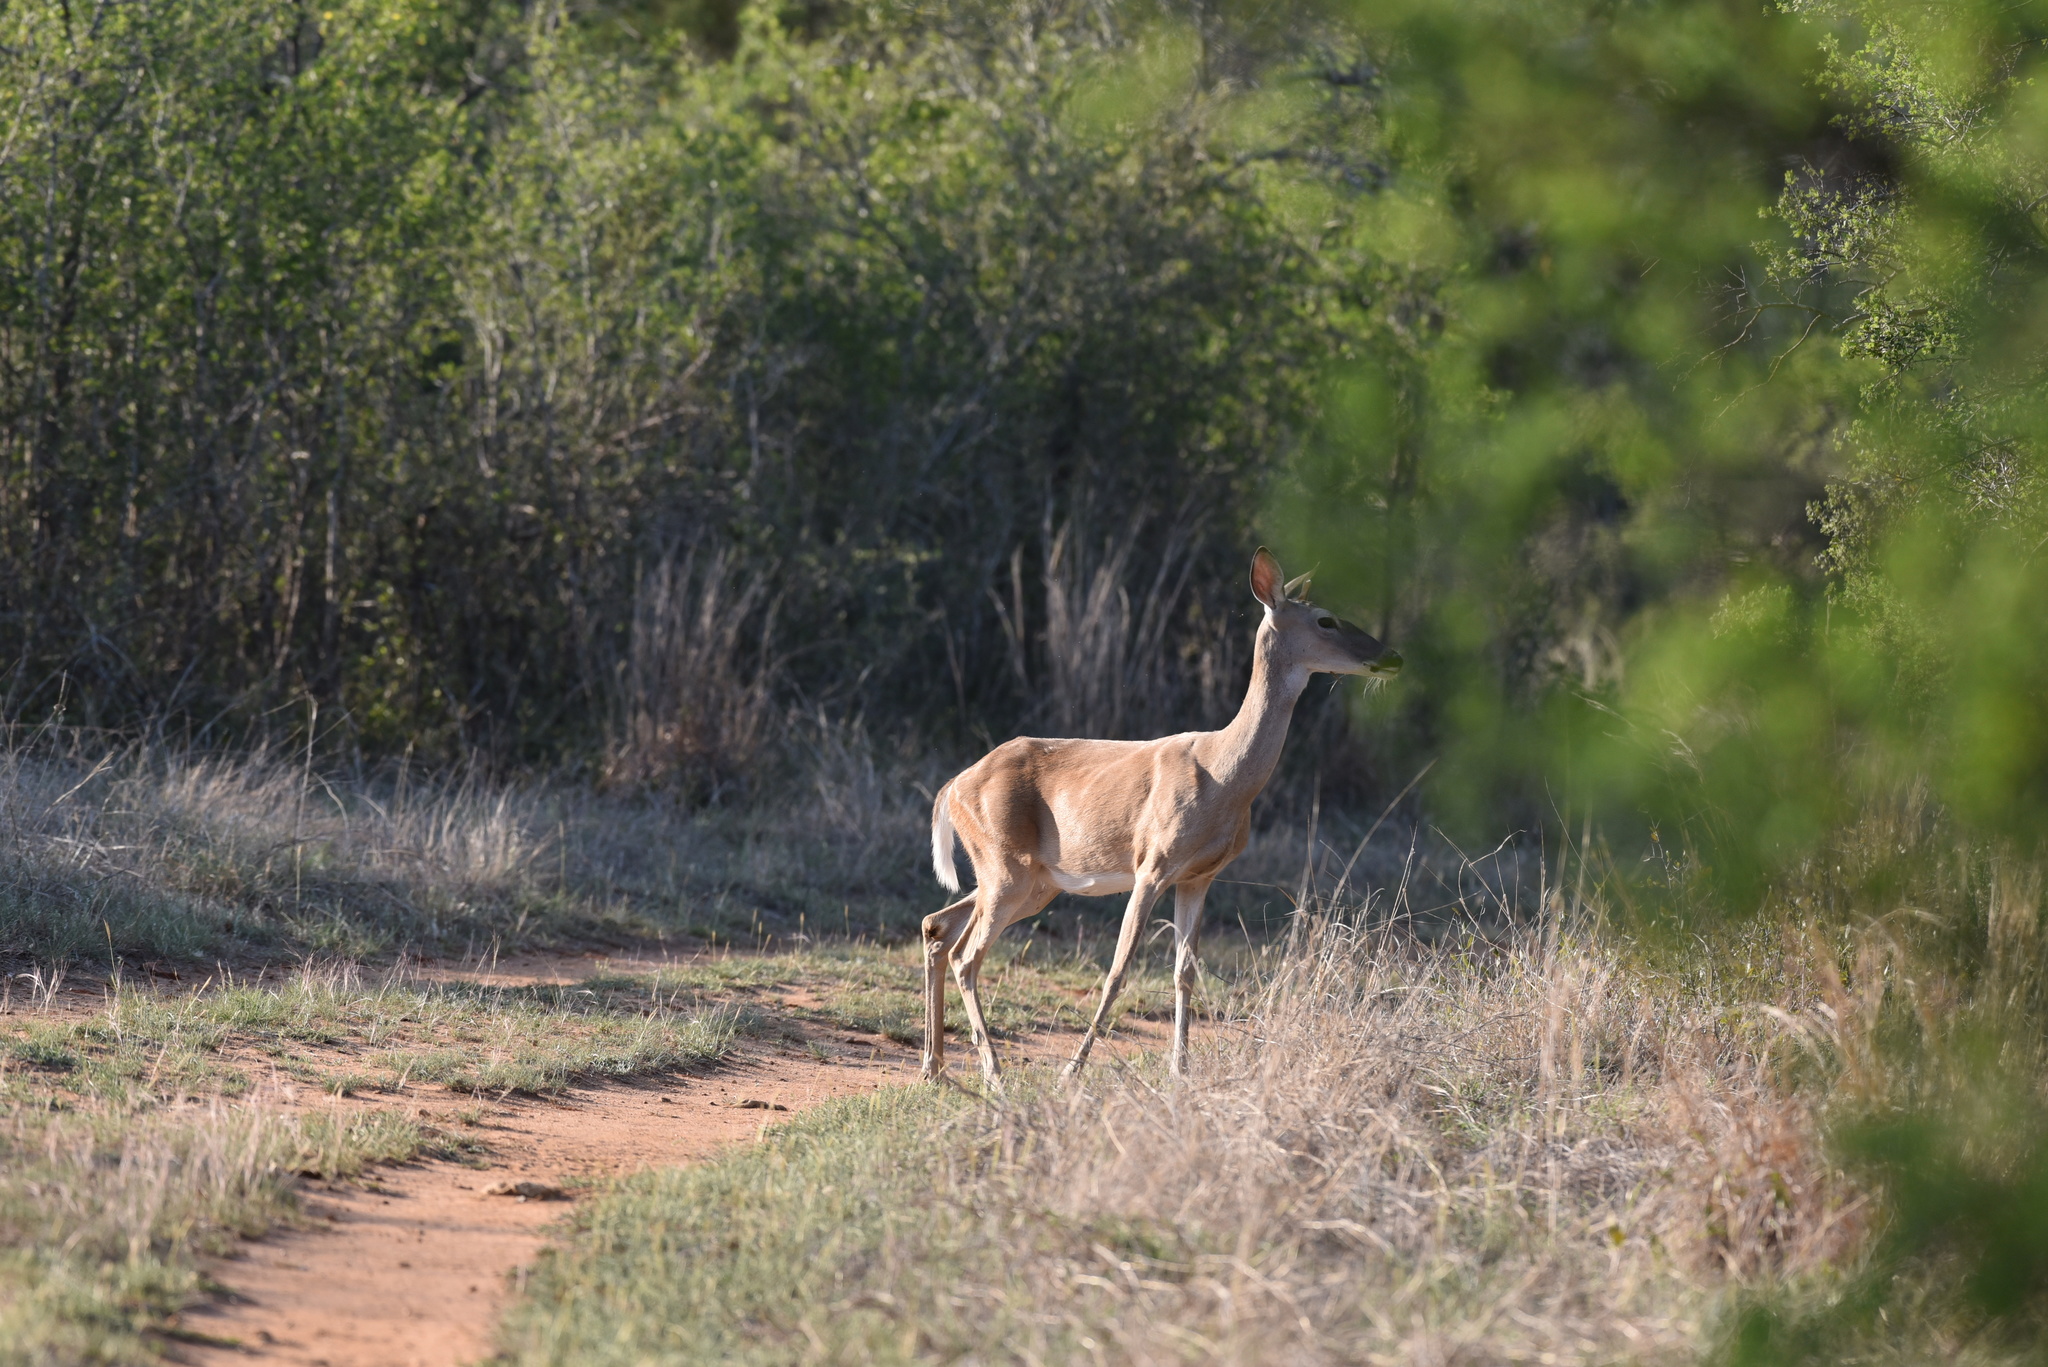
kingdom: Animalia
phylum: Chordata
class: Mammalia
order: Artiodactyla
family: Cervidae
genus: Odocoileus
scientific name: Odocoileus virginianus
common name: White-tailed deer
